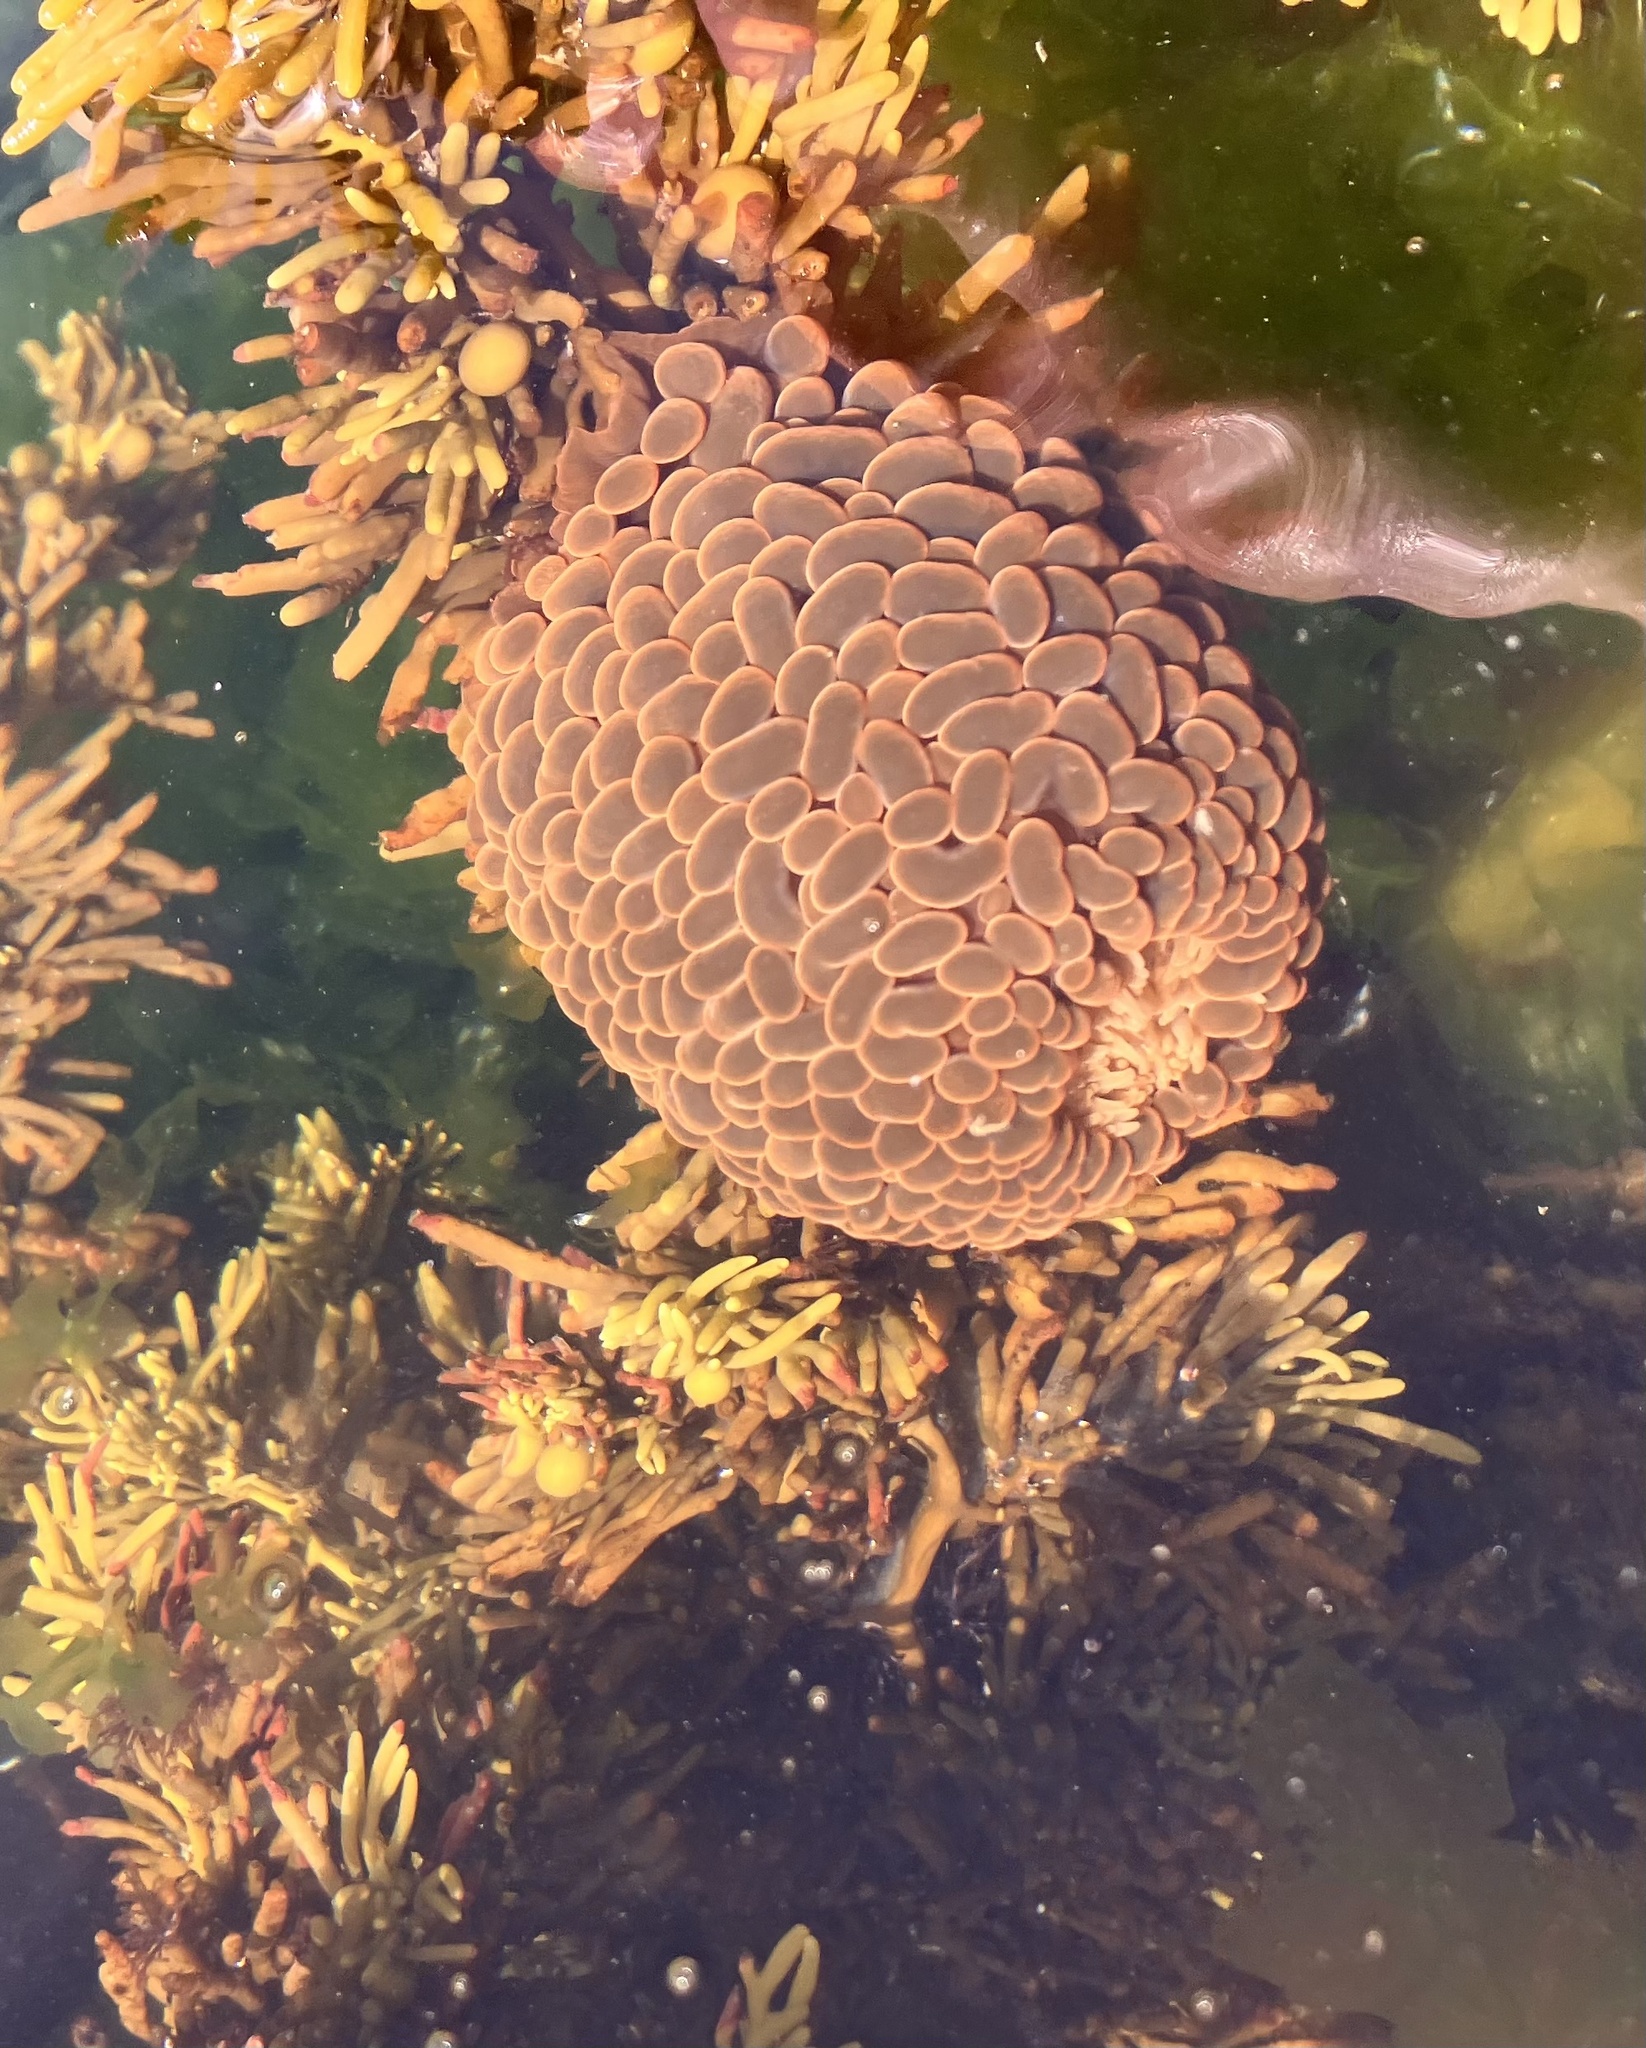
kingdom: Animalia
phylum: Cnidaria
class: Anthozoa
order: Actiniaria
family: Actiniidae
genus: Phlyctenactis
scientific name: Phlyctenactis tuberculosa
